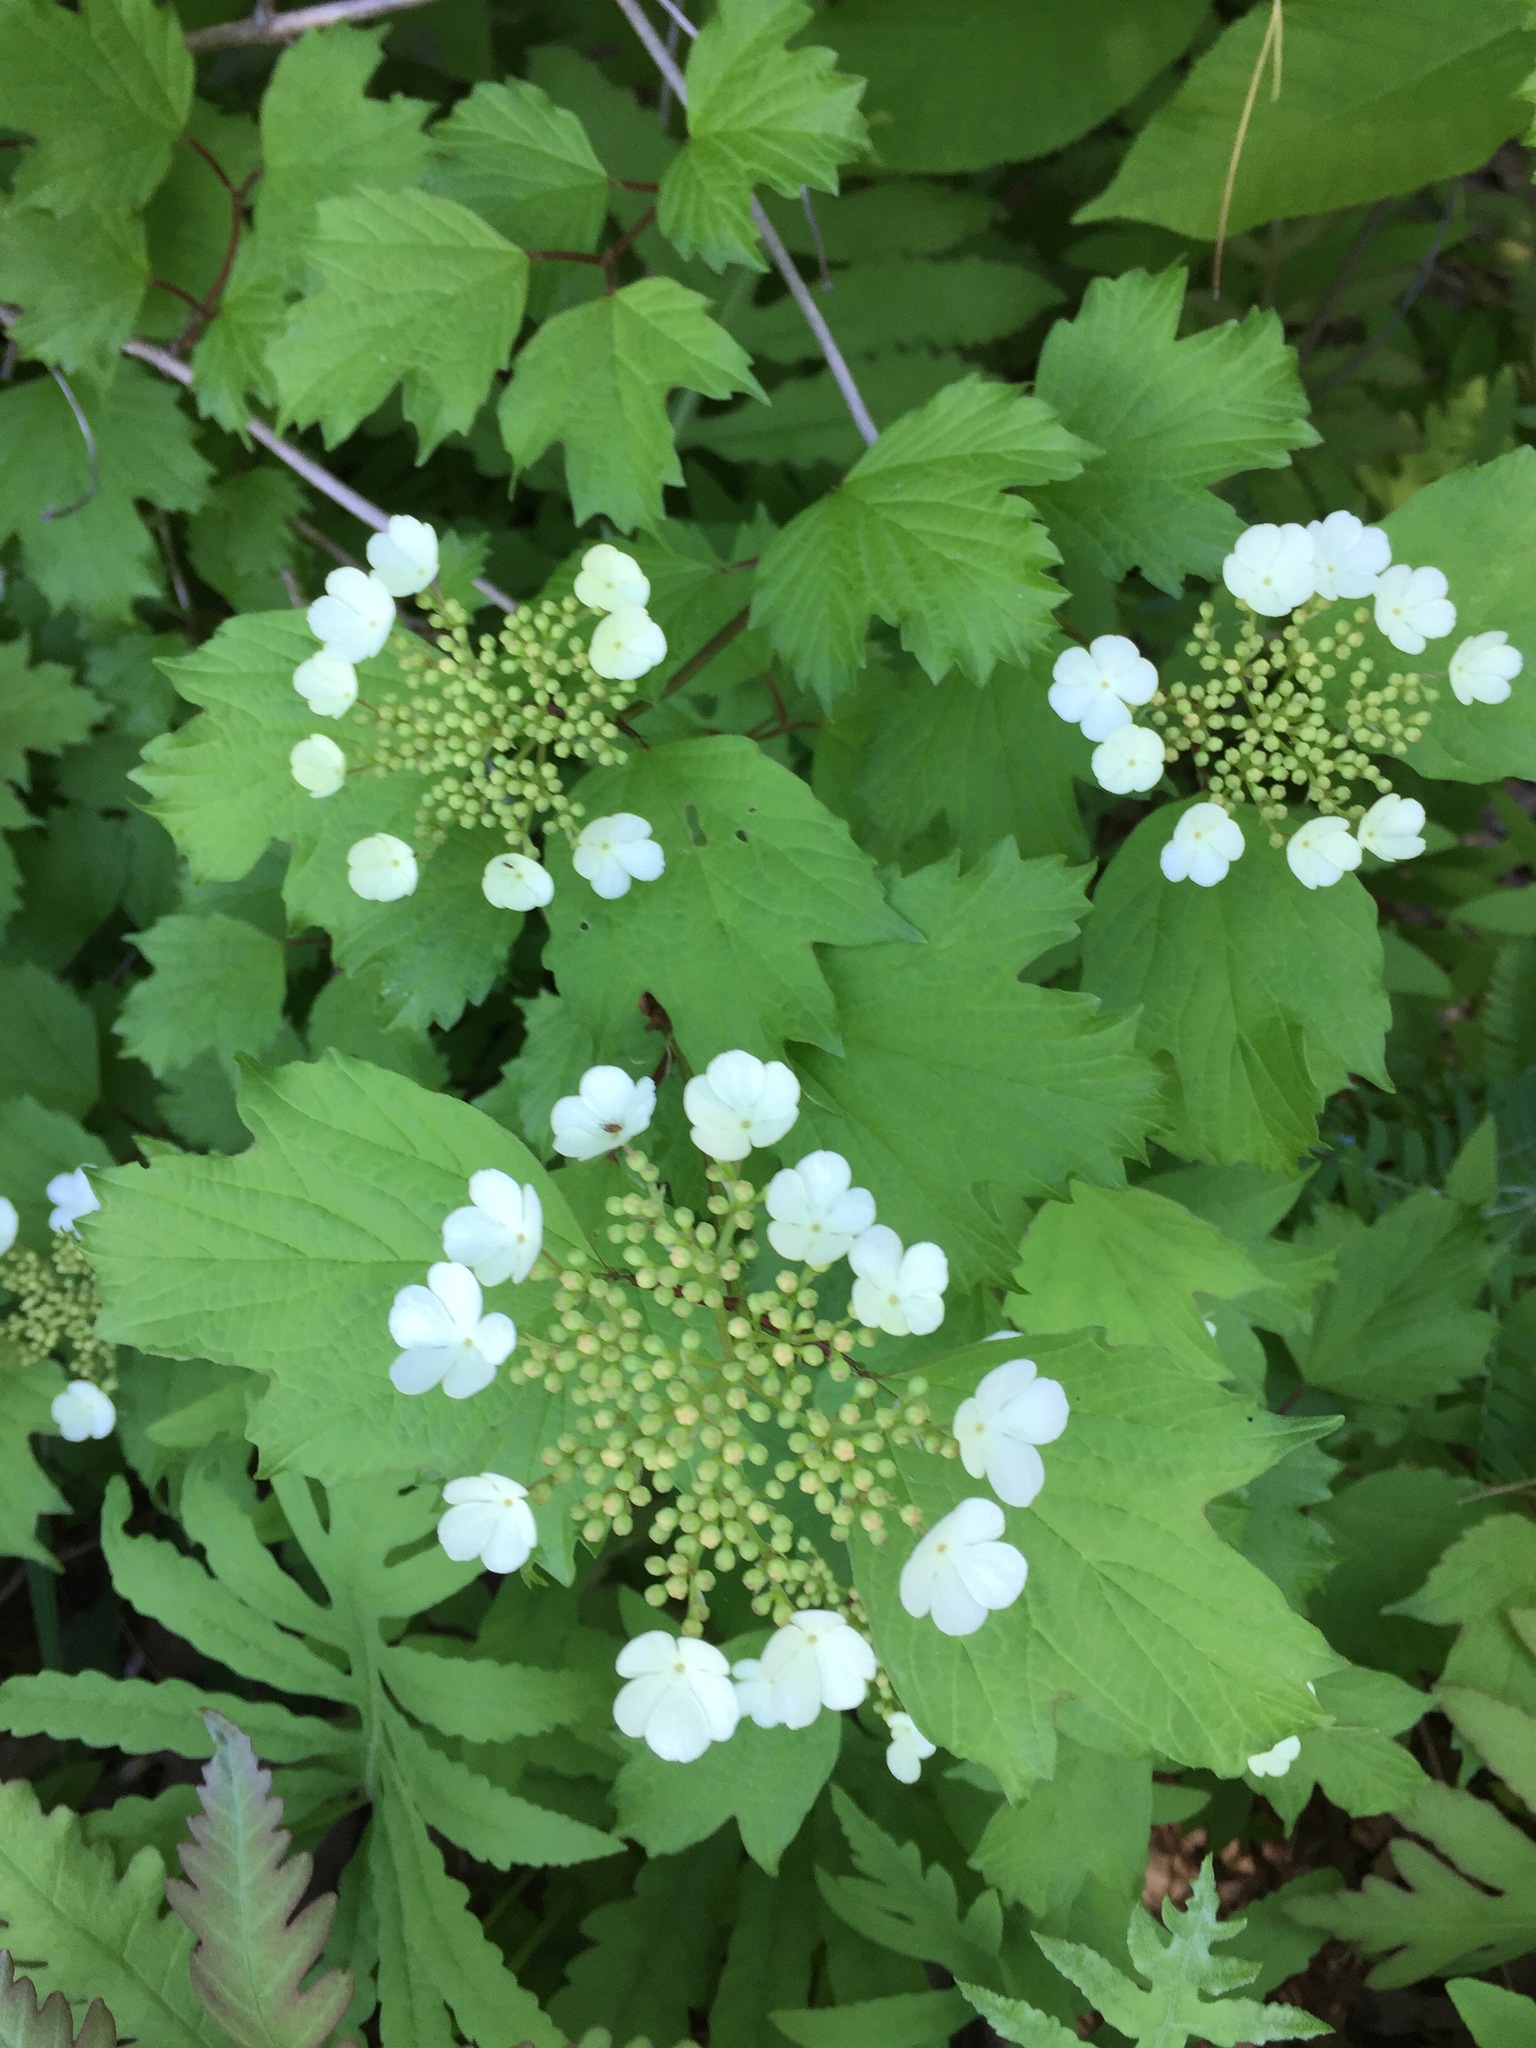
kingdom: Plantae
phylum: Tracheophyta
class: Magnoliopsida
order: Dipsacales
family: Viburnaceae
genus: Viburnum
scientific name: Viburnum opulus
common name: Guelder-rose
